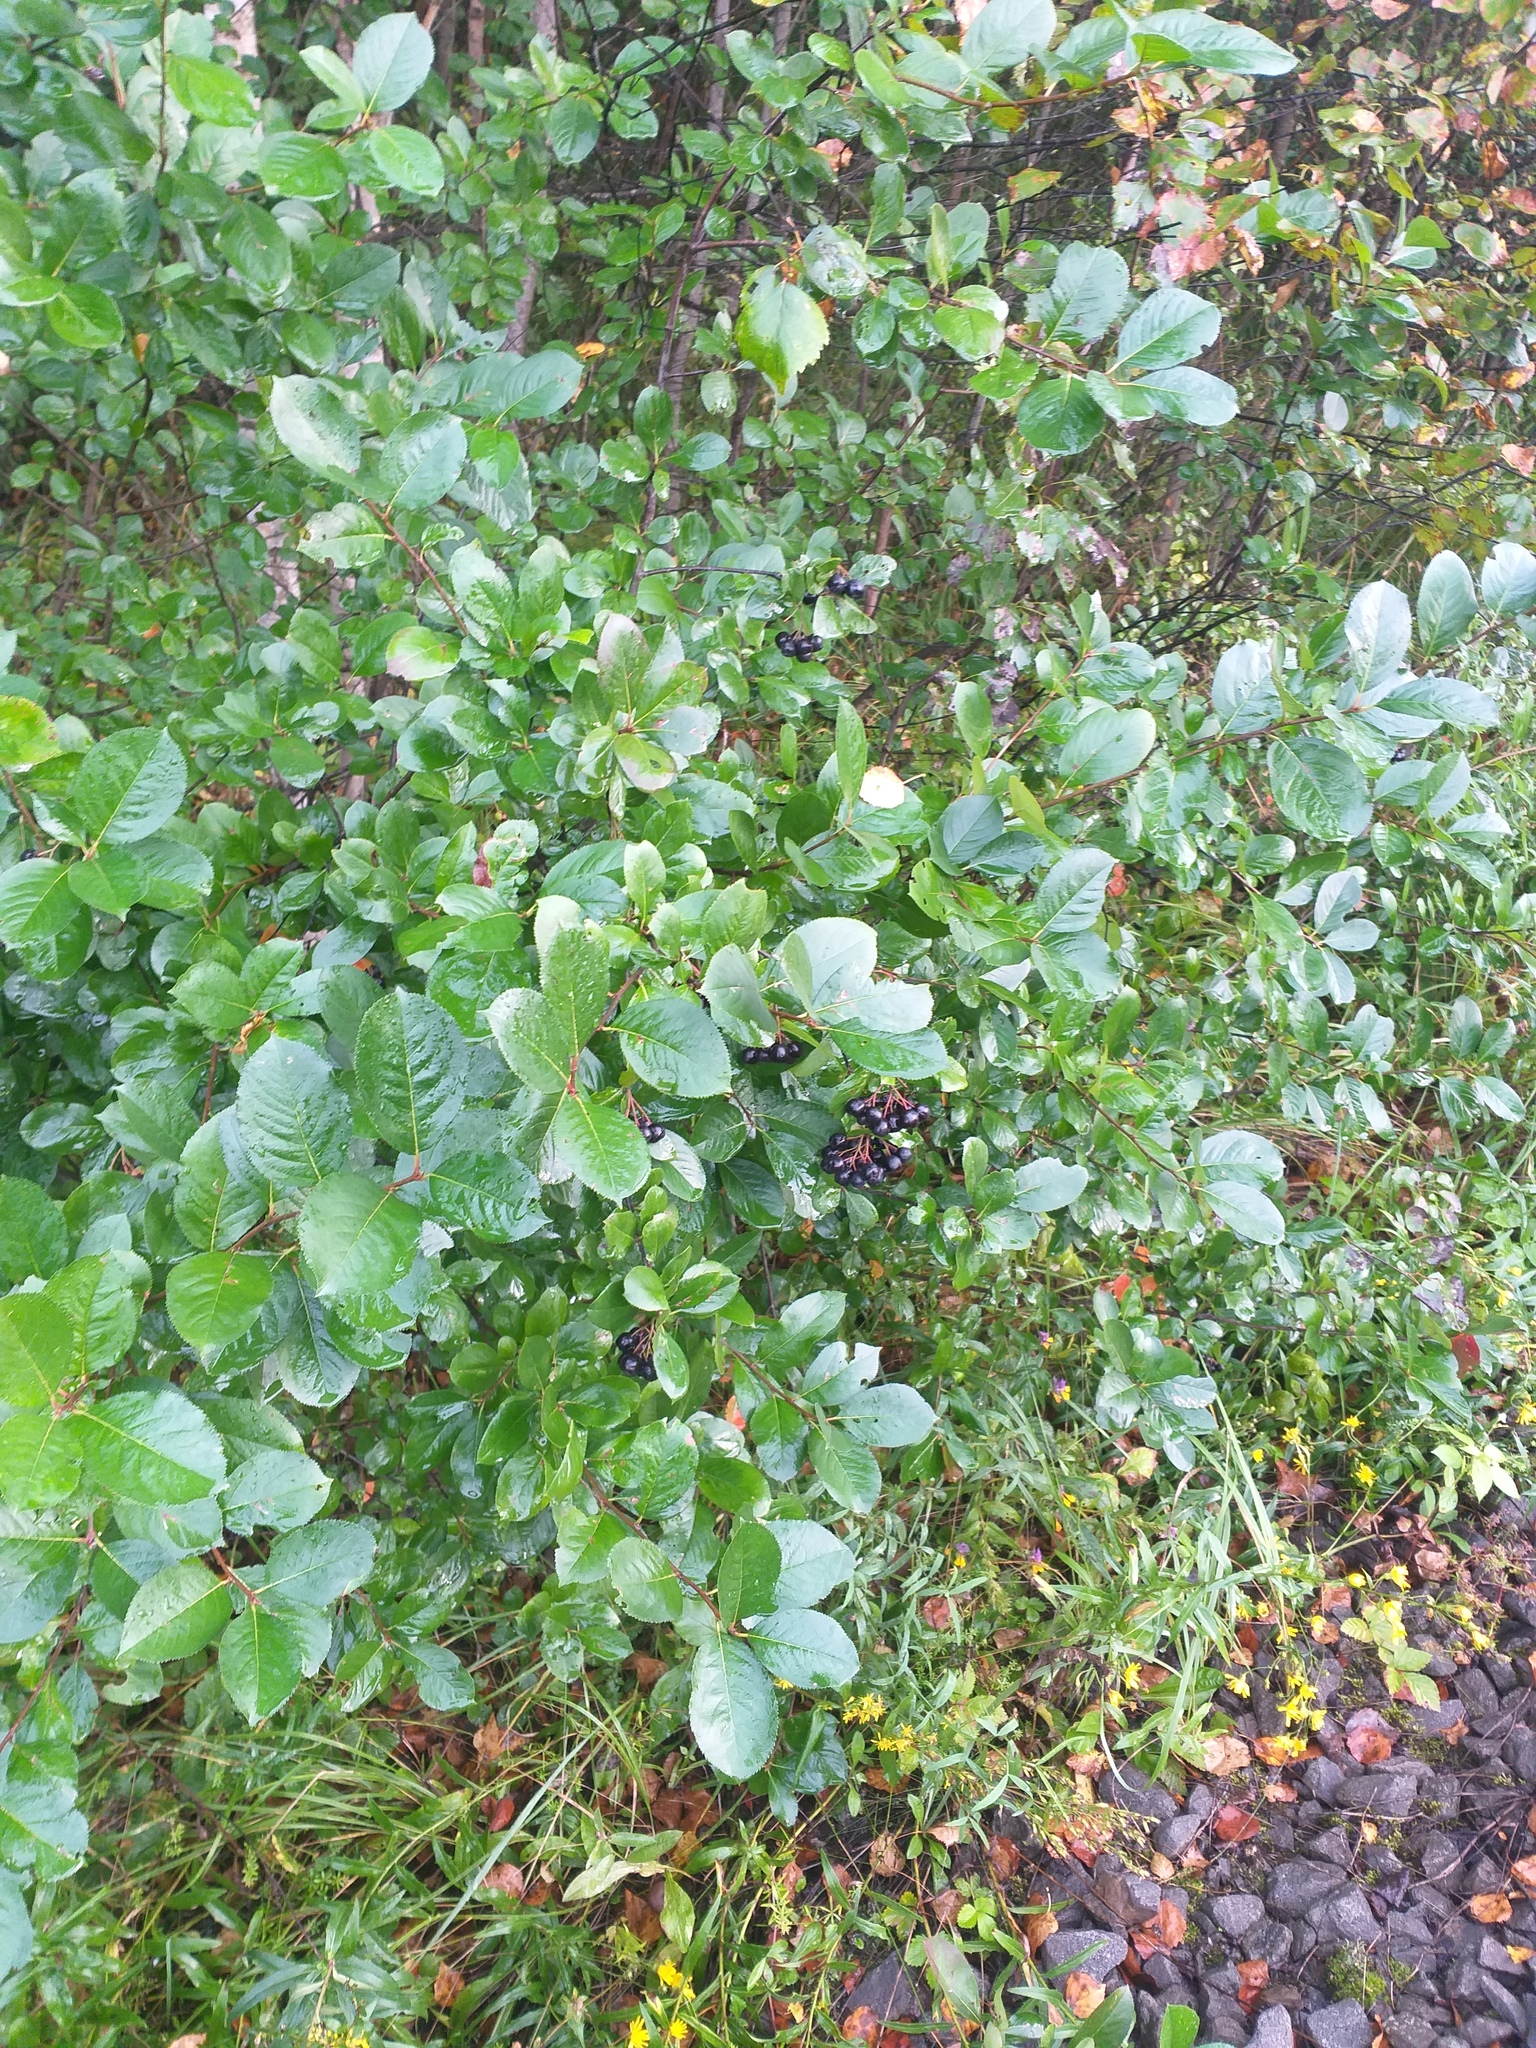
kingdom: Plantae
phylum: Tracheophyta
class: Magnoliopsida
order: Rosales
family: Rosaceae
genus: Sorbaronia
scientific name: Sorbaronia arsenii
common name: Arsène's mountain-ash
